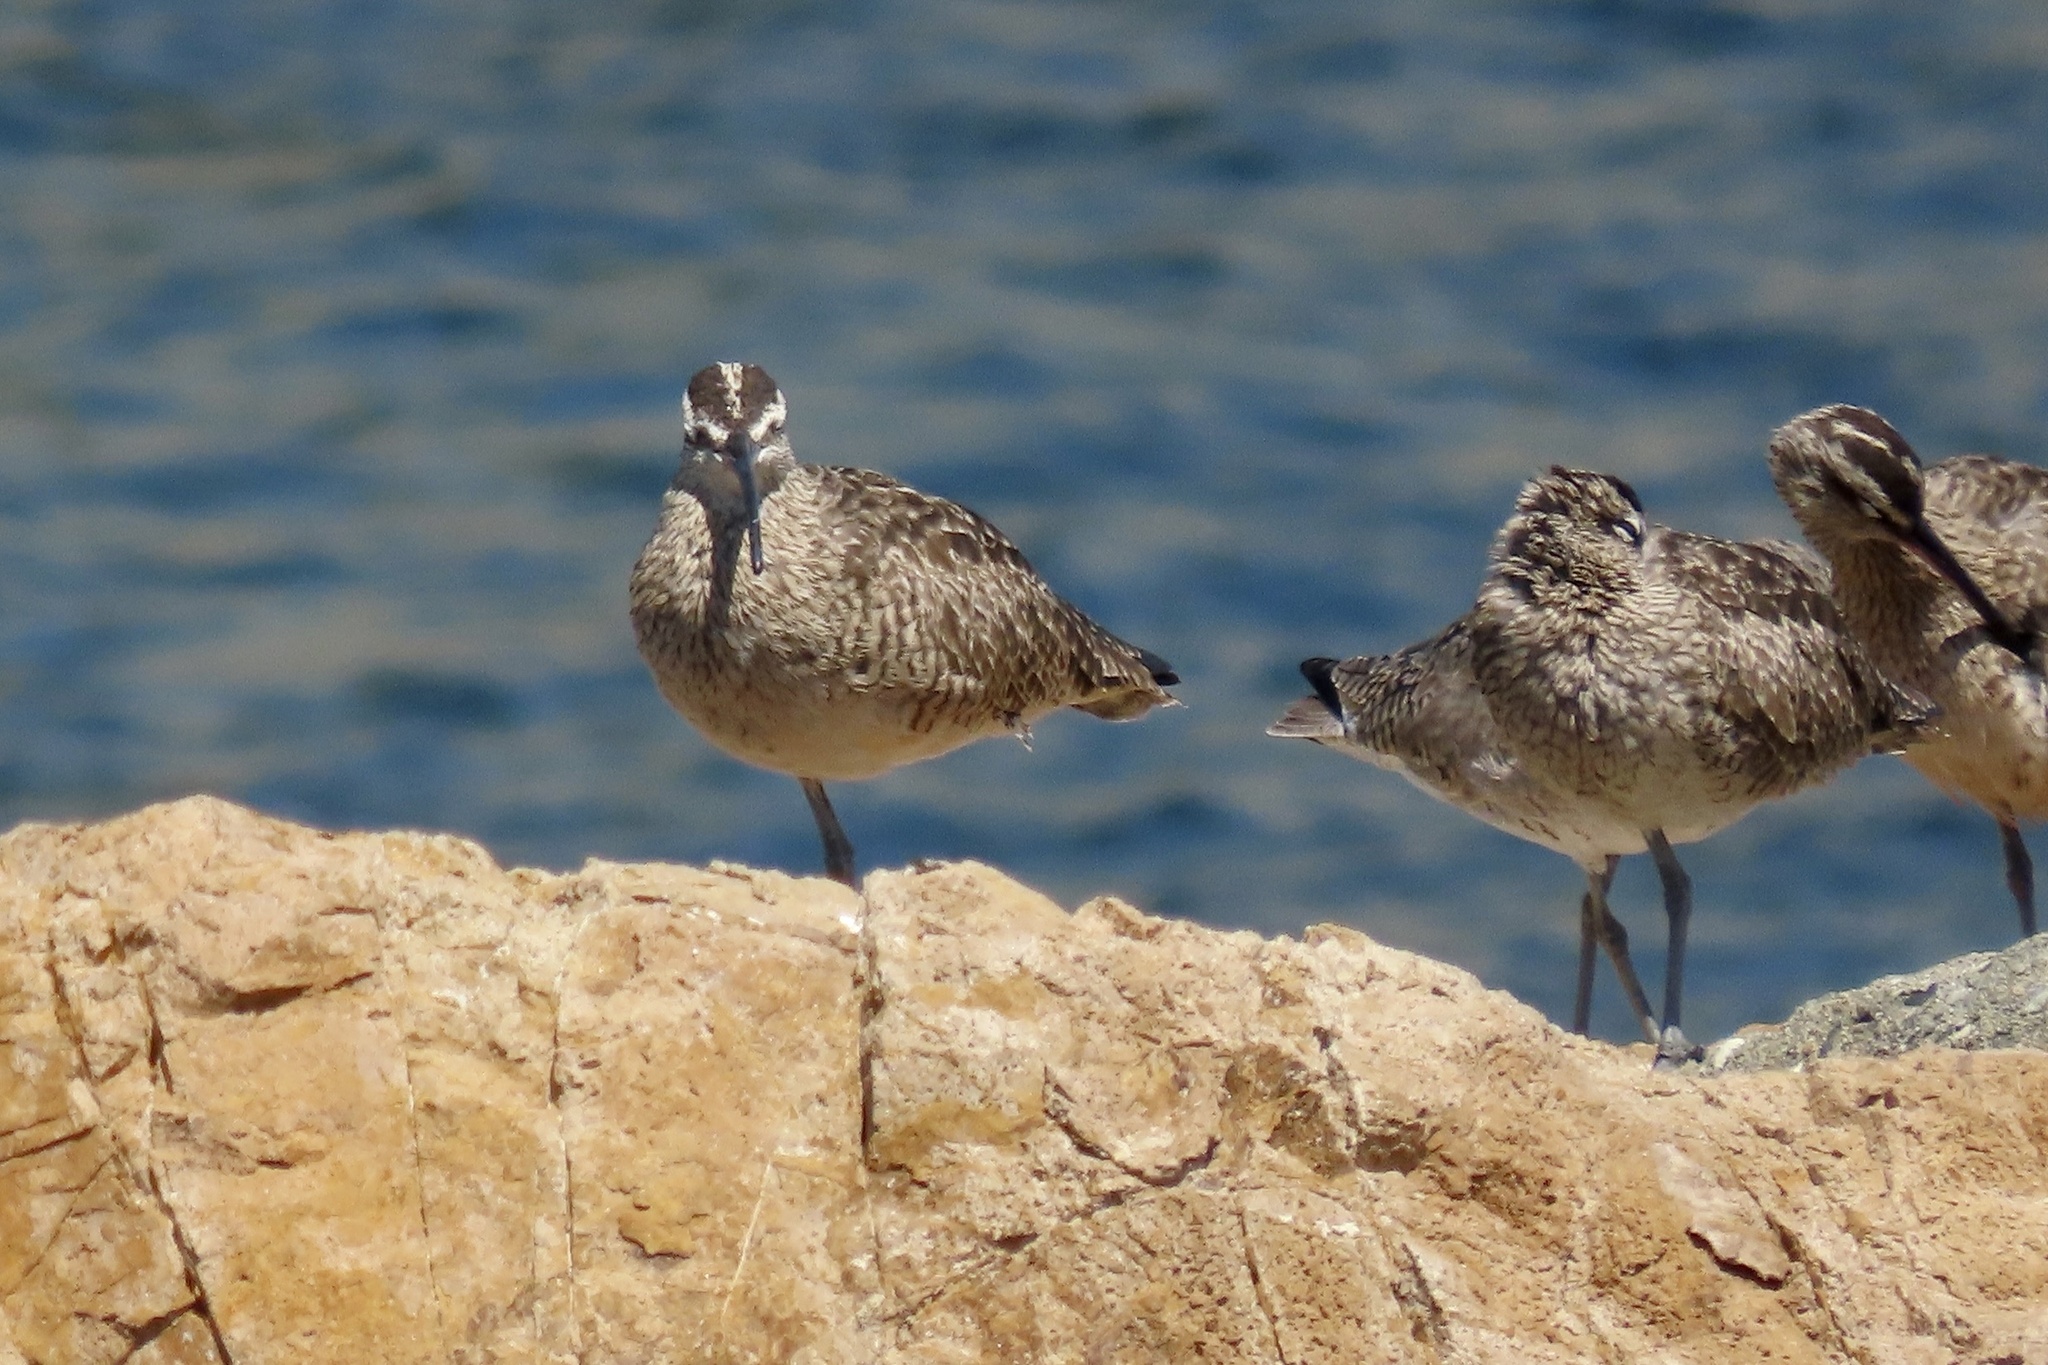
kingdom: Animalia
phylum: Chordata
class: Aves
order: Charadriiformes
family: Scolopacidae
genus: Numenius
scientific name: Numenius phaeopus
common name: Whimbrel
